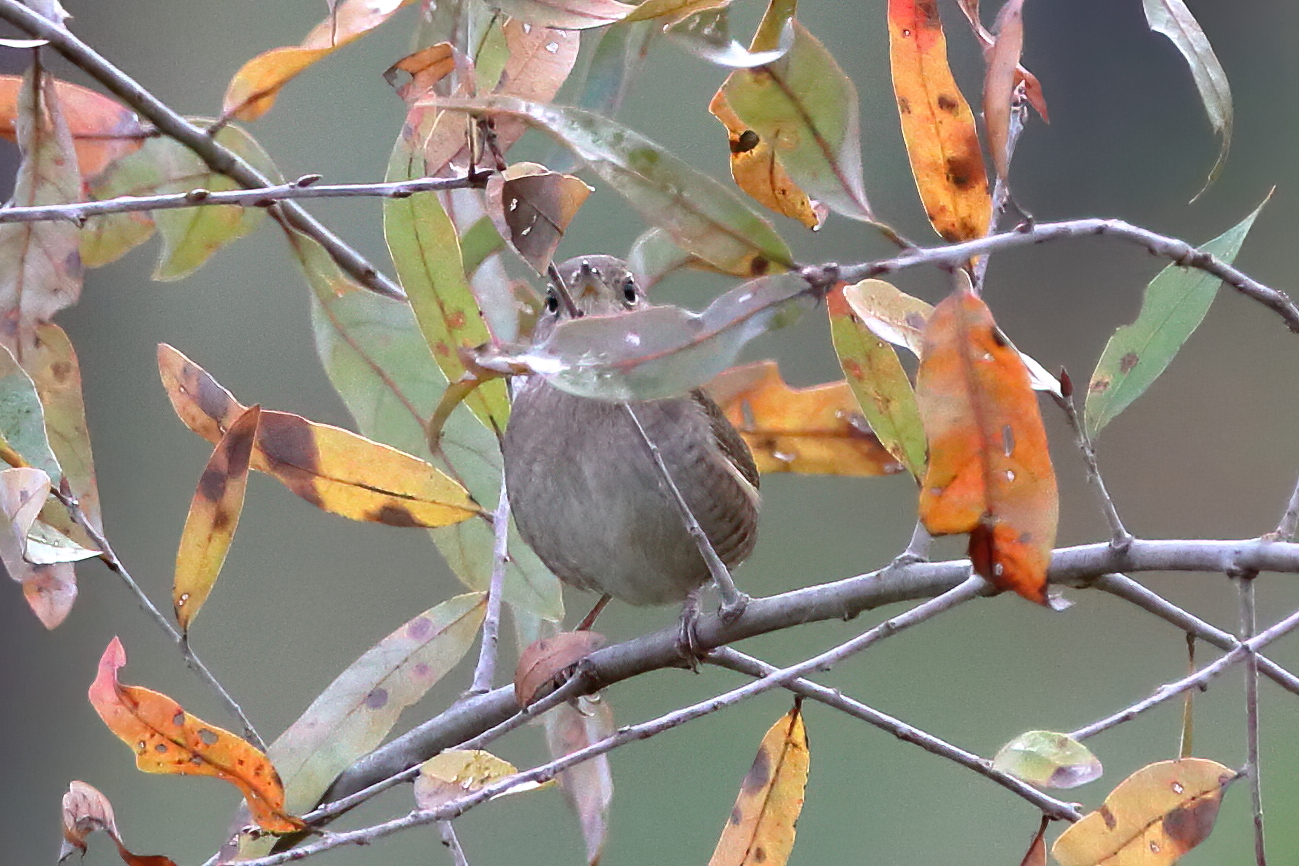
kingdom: Animalia
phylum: Chordata
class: Aves
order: Passeriformes
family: Troglodytidae
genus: Troglodytes
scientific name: Troglodytes aedon
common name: House wren
